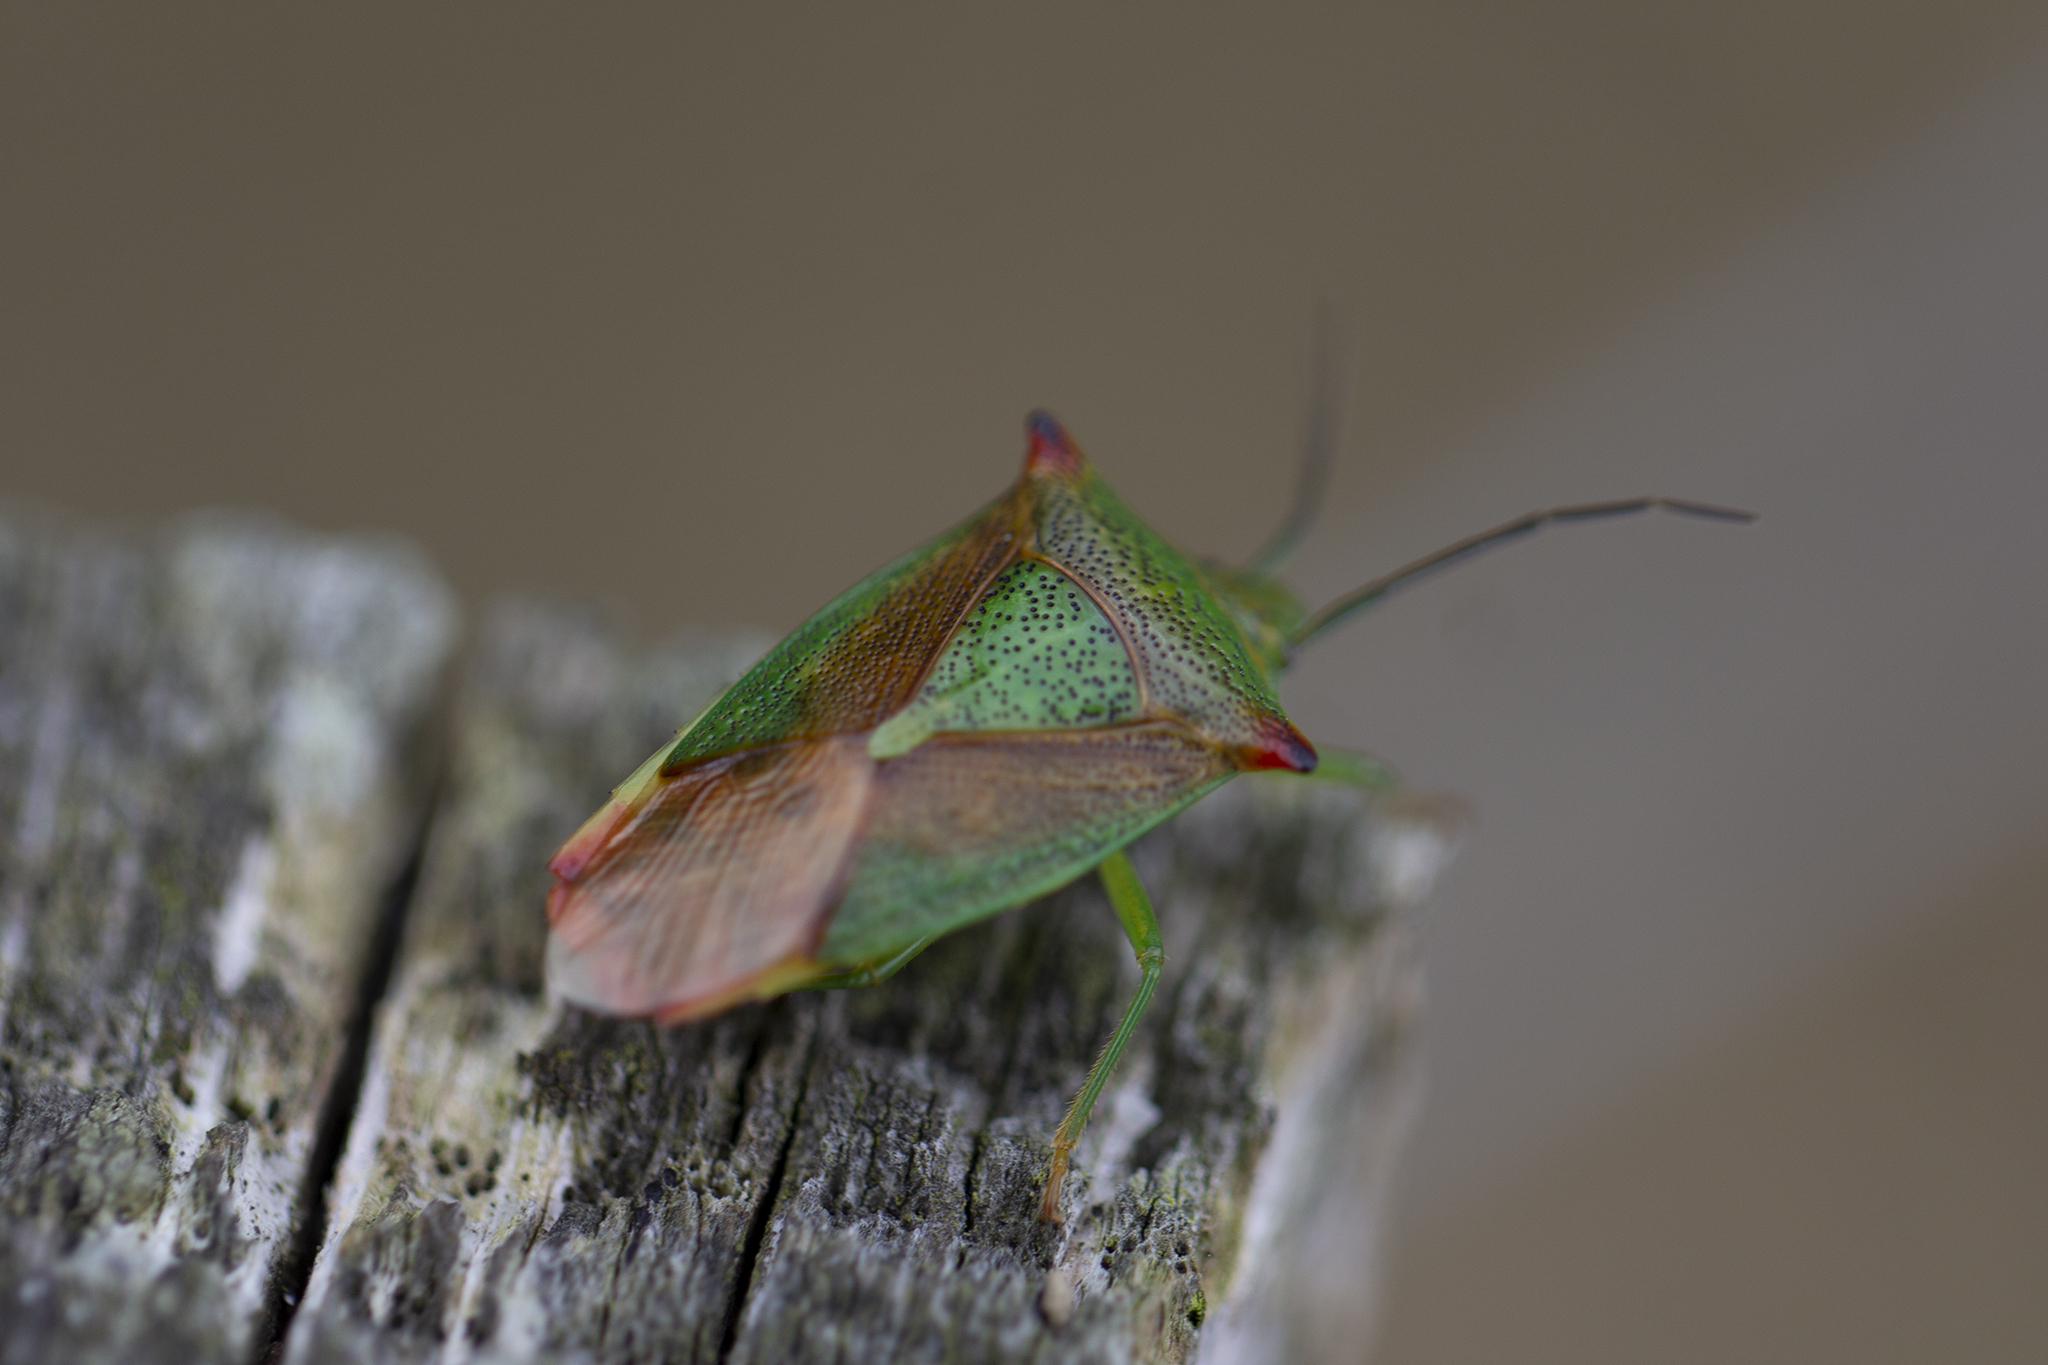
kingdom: Animalia
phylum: Arthropoda
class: Insecta
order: Hemiptera
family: Acanthosomatidae
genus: Acanthosoma
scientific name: Acanthosoma haemorrhoidale
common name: Hawthorn shieldbug
